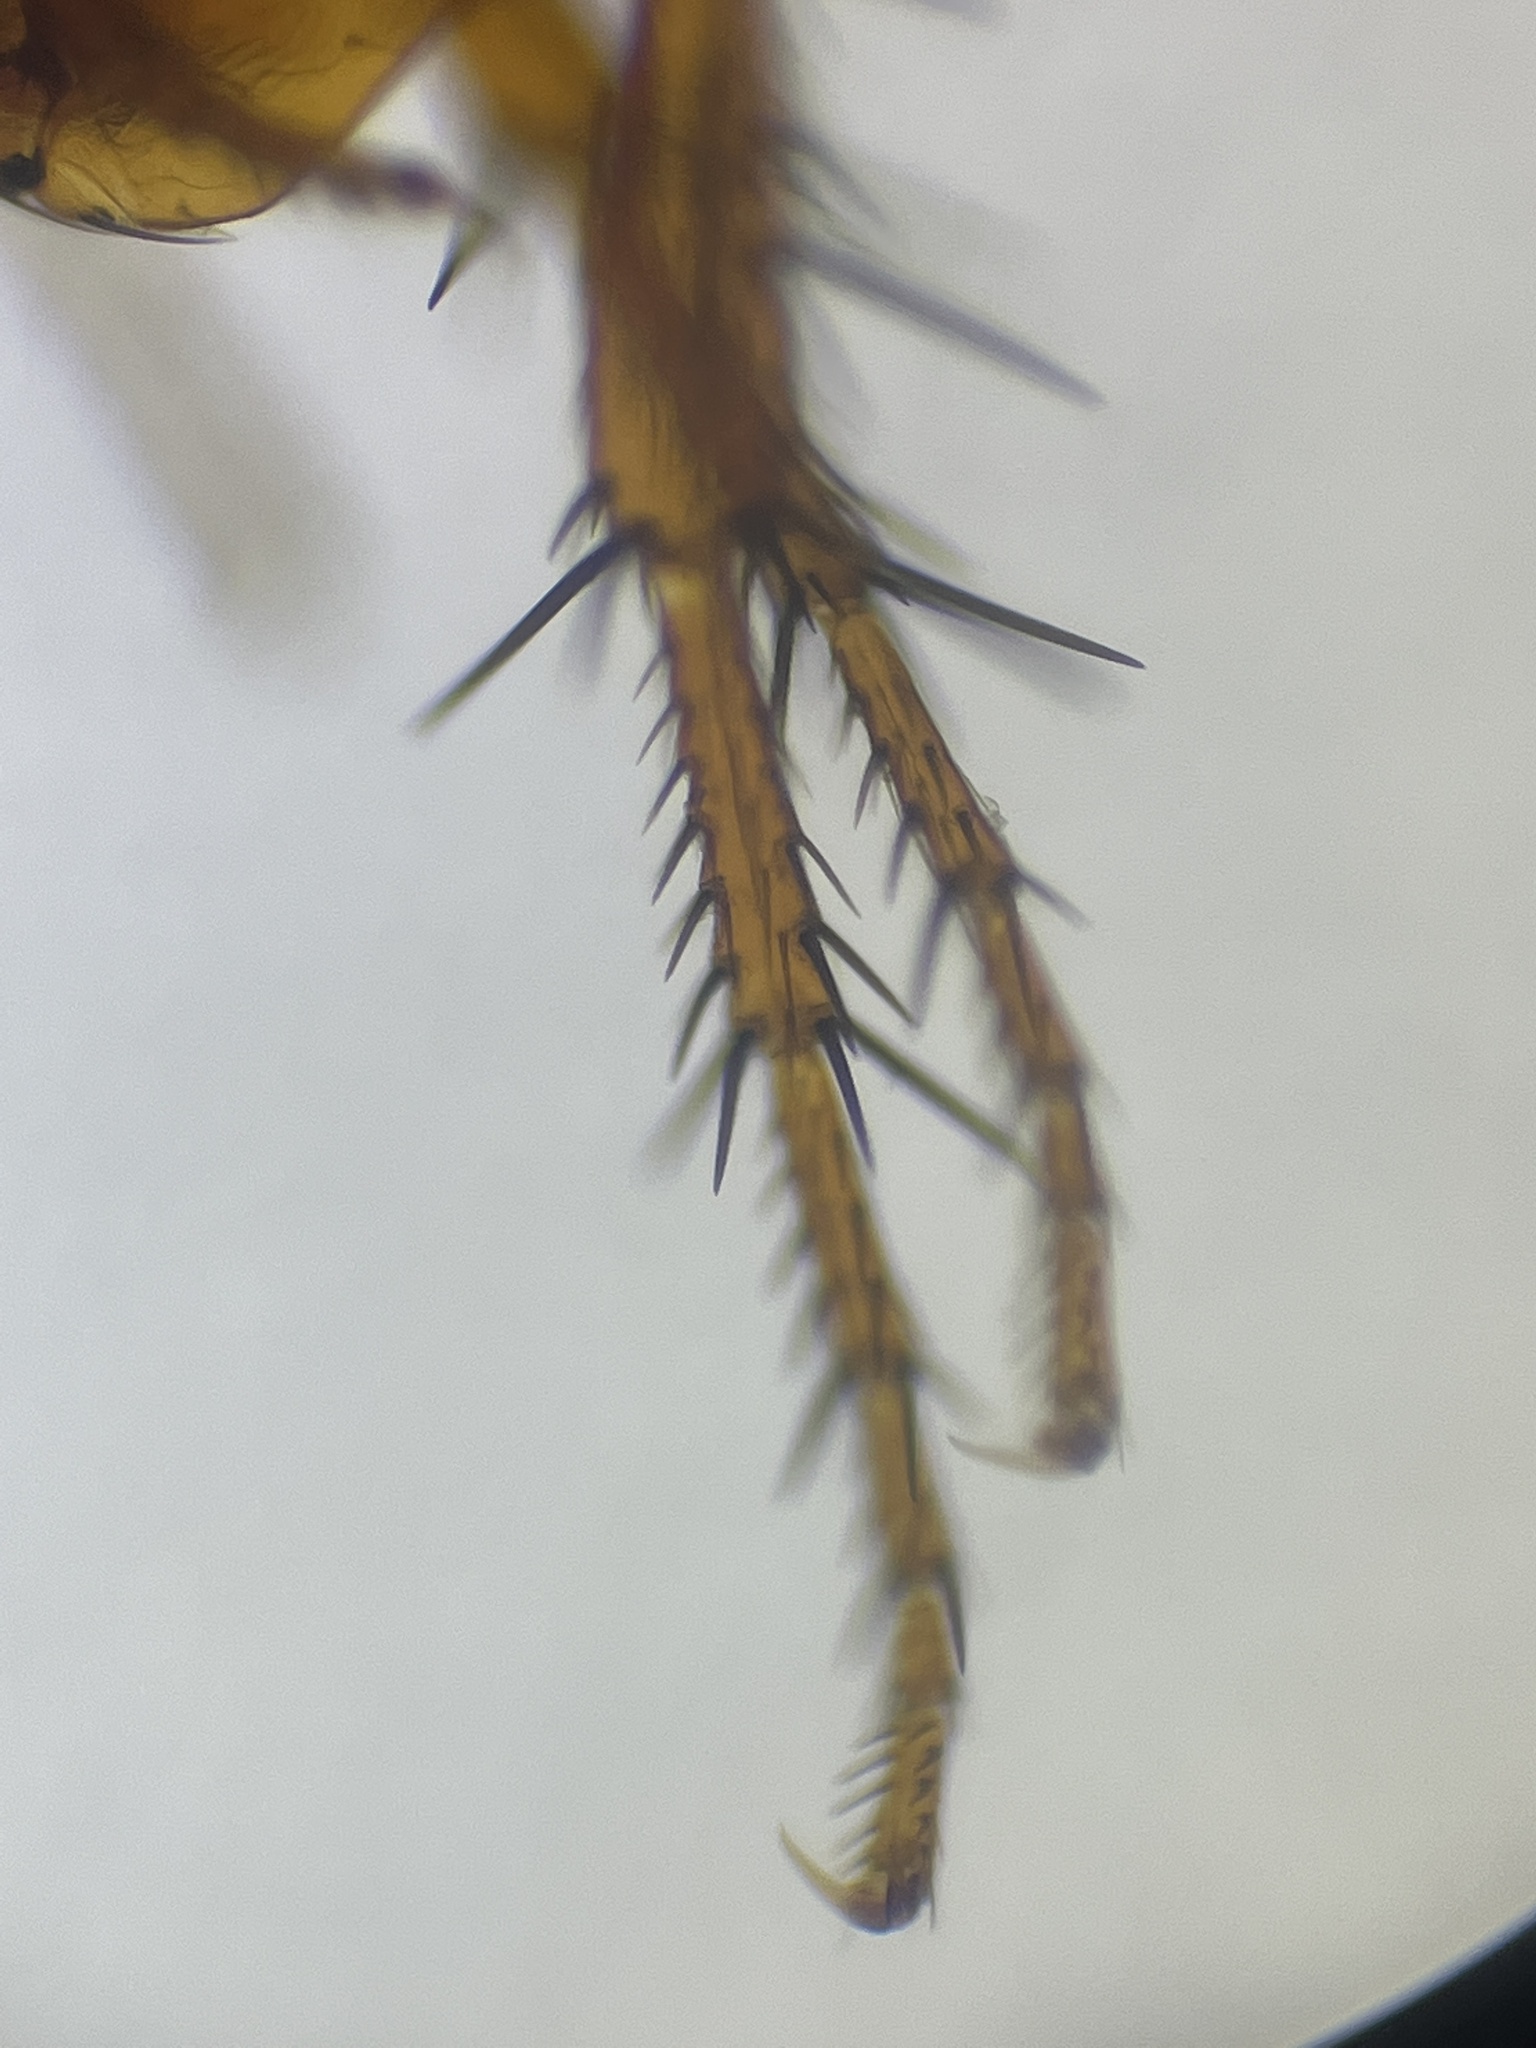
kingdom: Animalia
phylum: Arthropoda
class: Insecta
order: Siphonaptera
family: Ceratophyllidae
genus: Nosopsyllus
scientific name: Nosopsyllus fasciatus
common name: Northern rat flea
